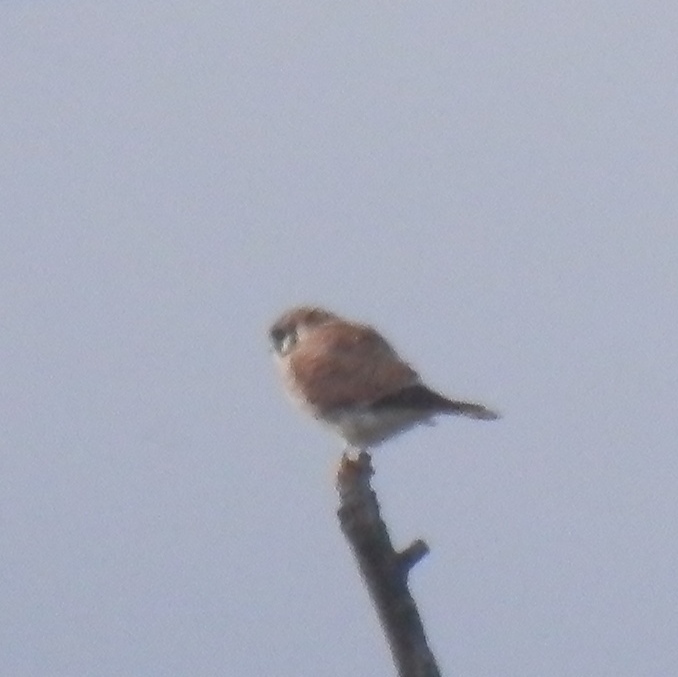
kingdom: Animalia
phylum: Chordata
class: Aves
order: Falconiformes
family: Falconidae
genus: Falco
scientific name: Falco sparverius
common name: American kestrel
